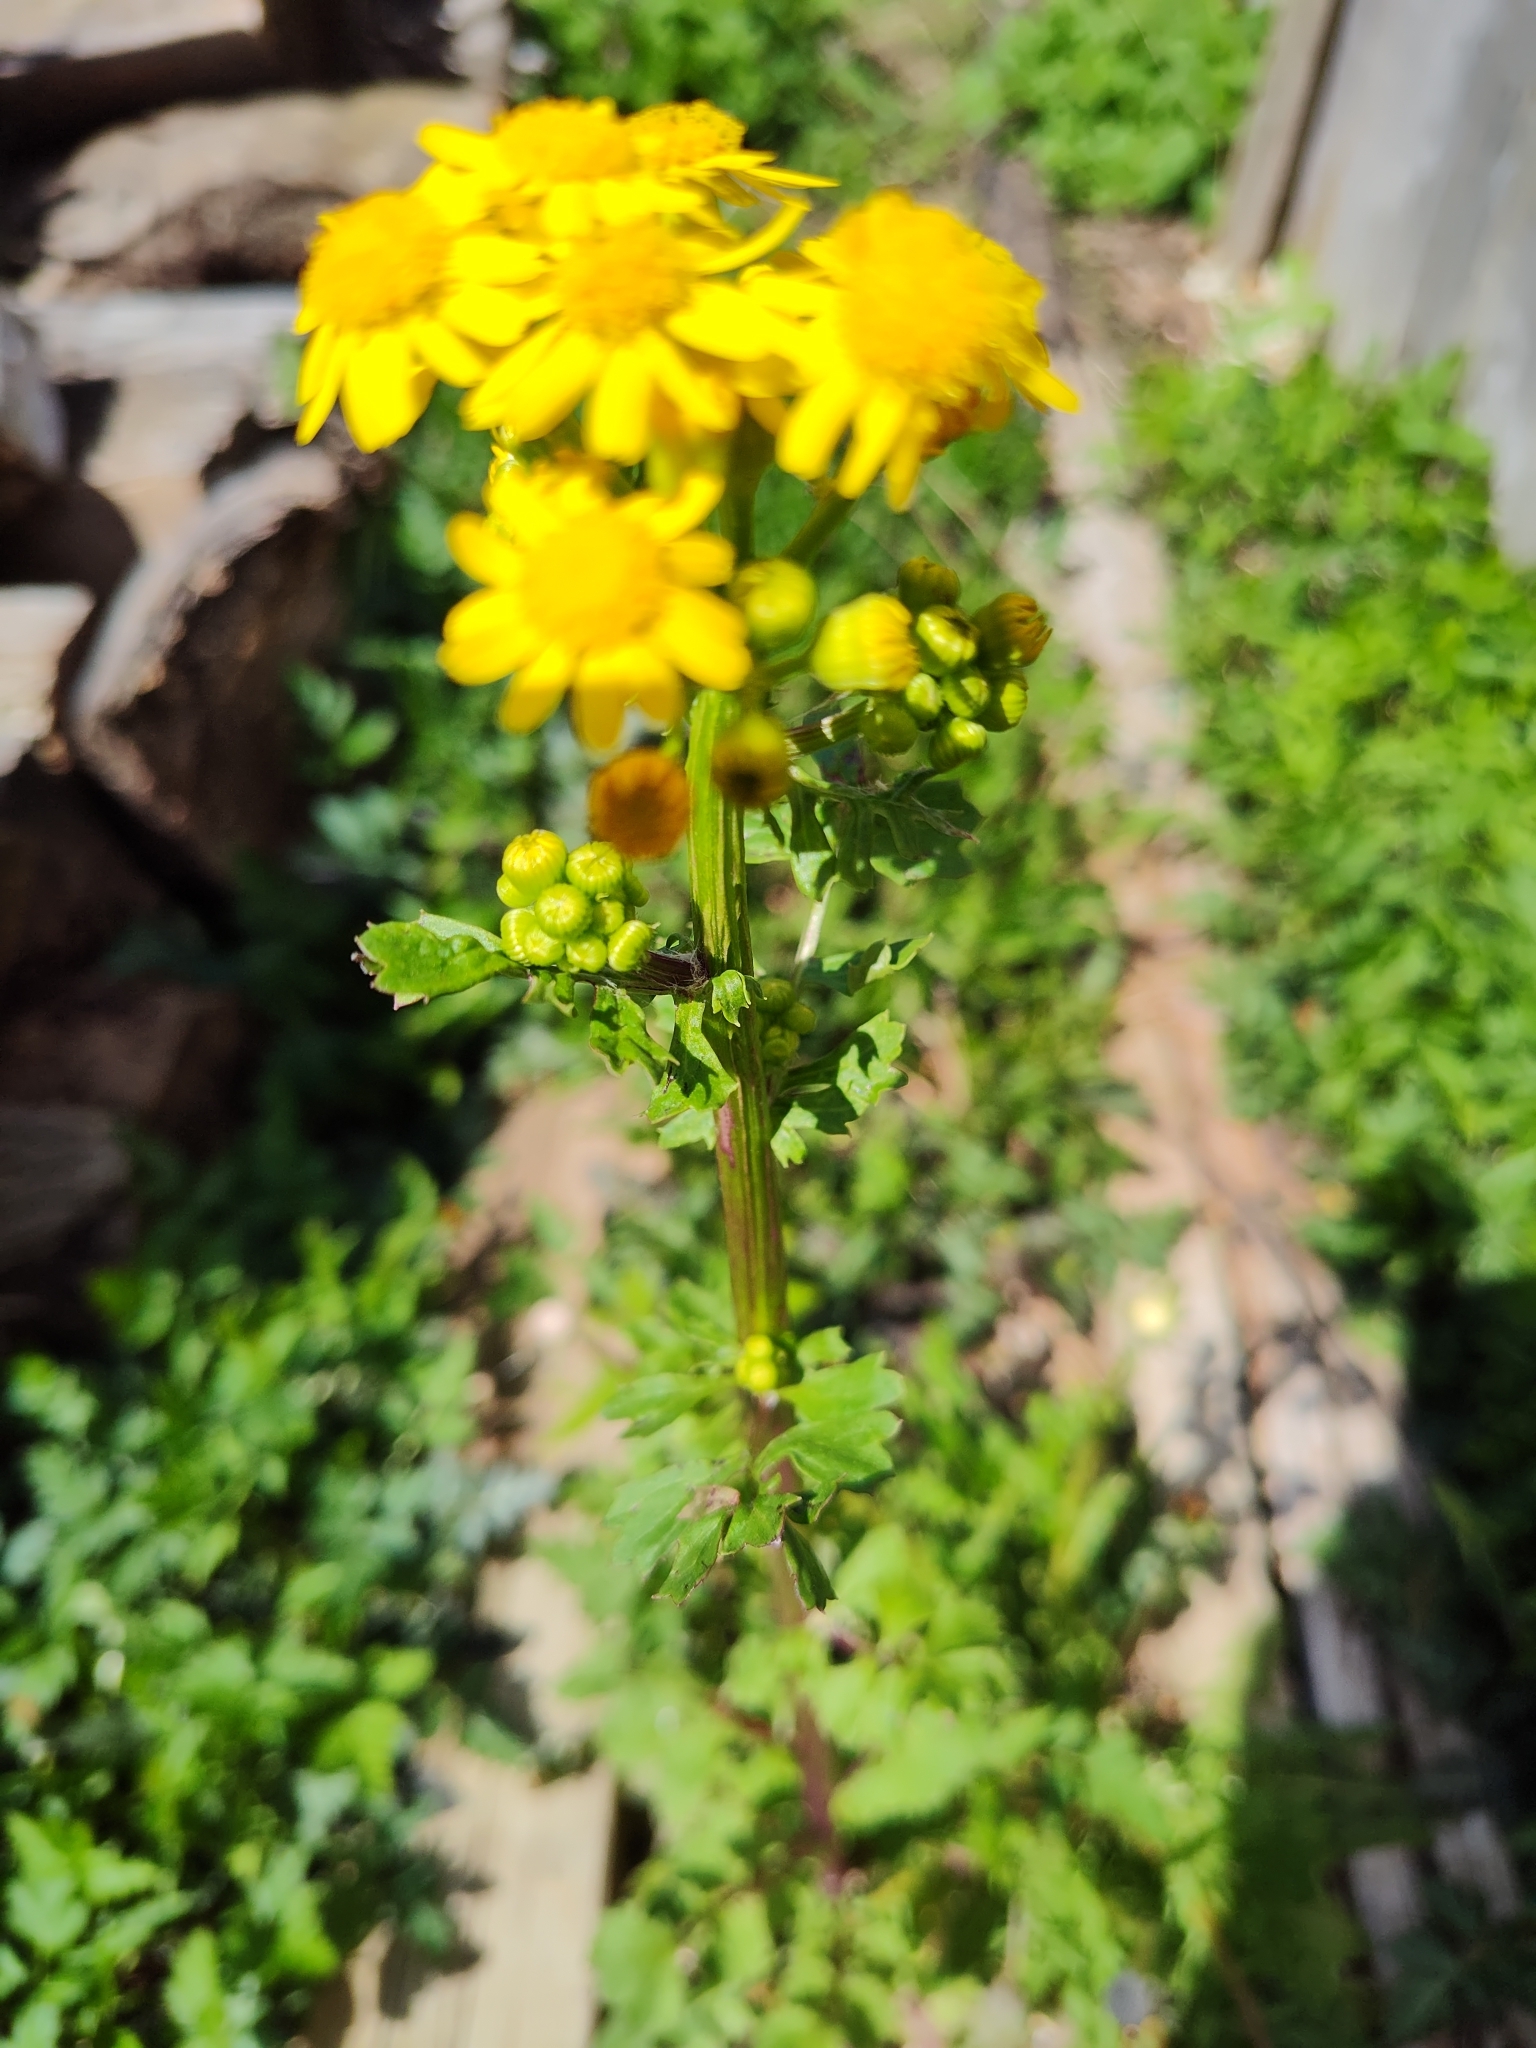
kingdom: Plantae
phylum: Tracheophyta
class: Magnoliopsida
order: Asterales
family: Asteraceae
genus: Packera
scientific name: Packera glabella
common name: Butterweed
